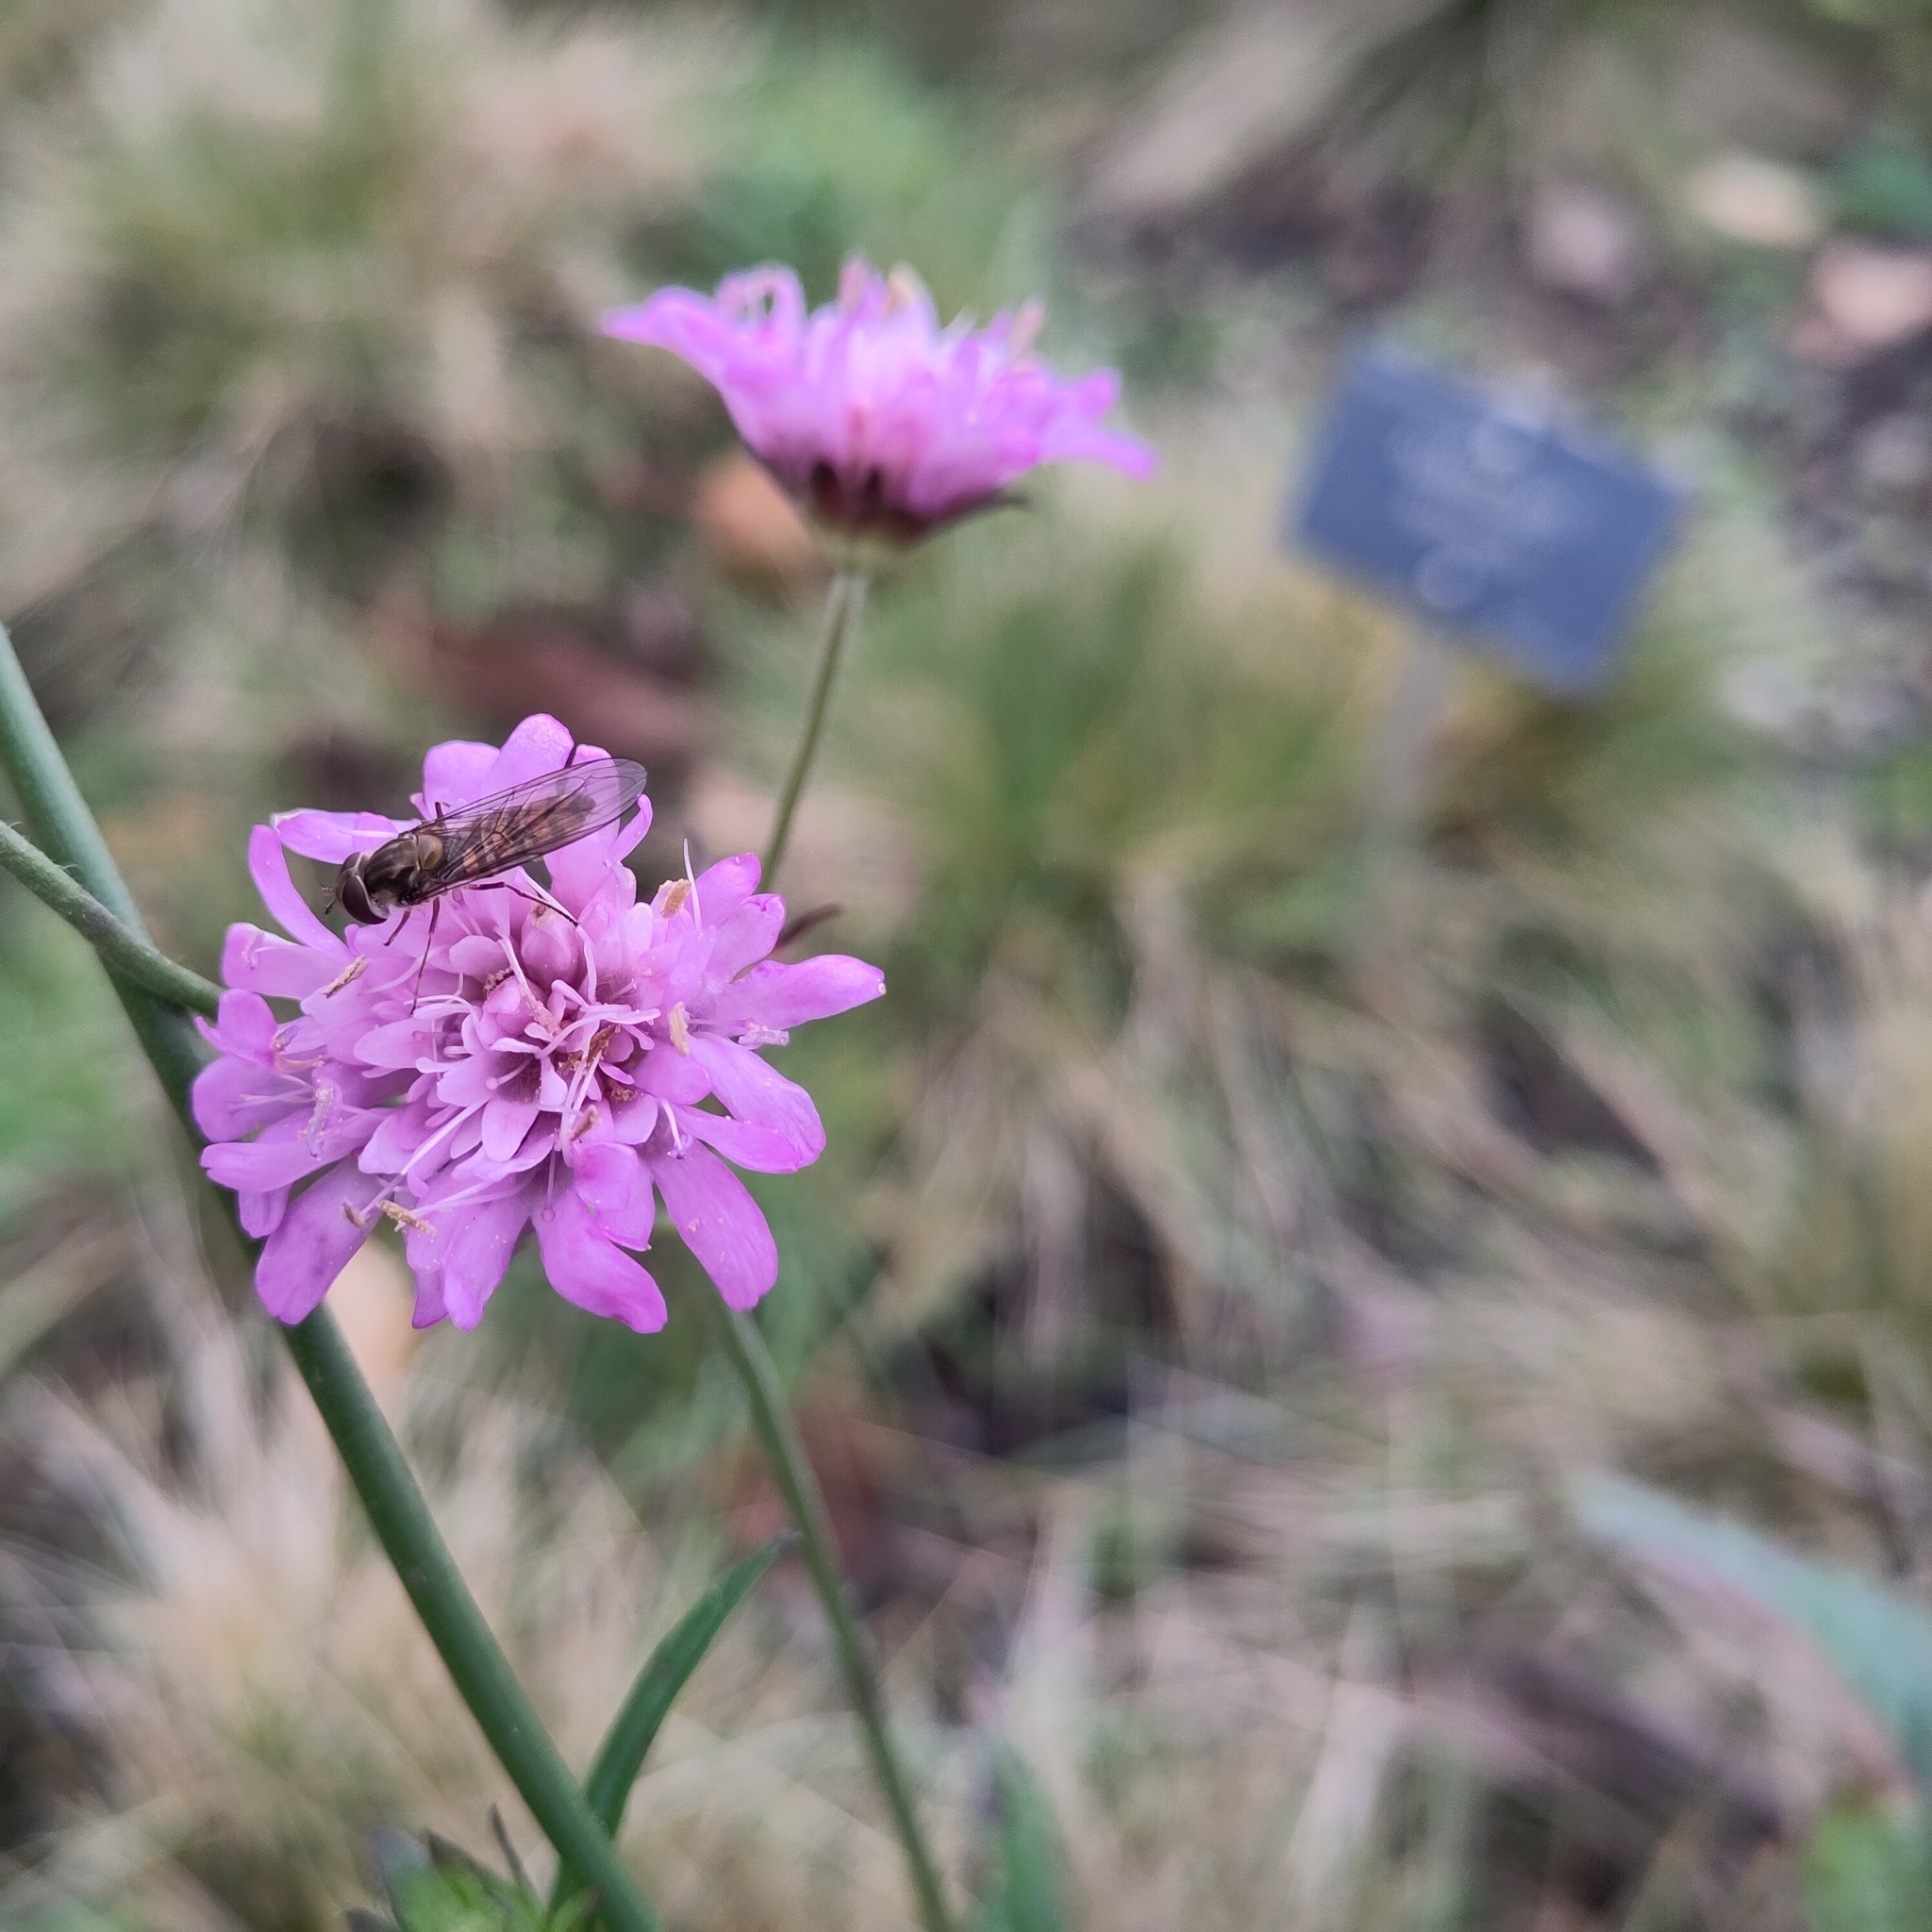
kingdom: Animalia
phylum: Arthropoda
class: Insecta
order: Diptera
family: Syrphidae
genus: Episyrphus
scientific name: Episyrphus balteatus
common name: Marmalade hoverfly
